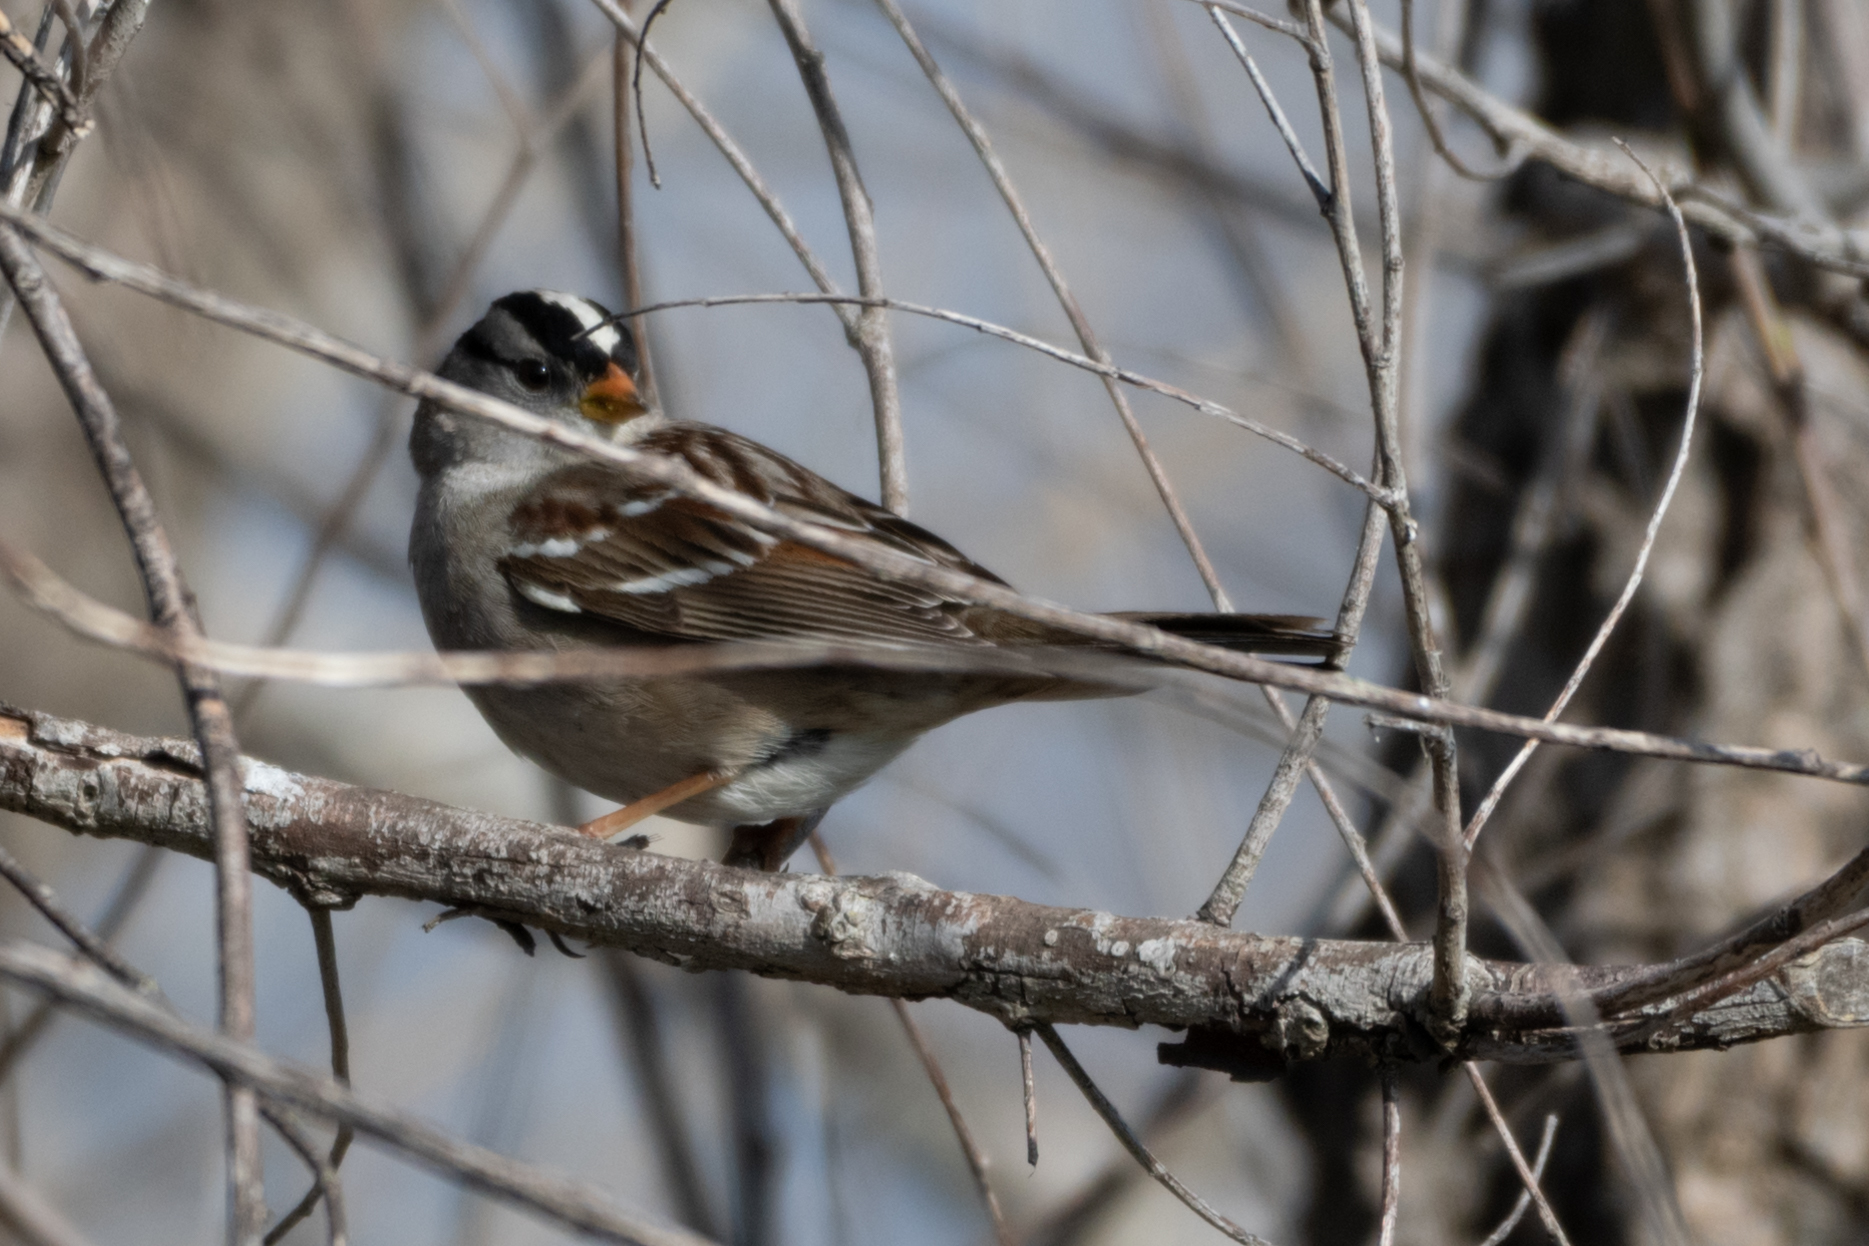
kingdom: Animalia
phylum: Chordata
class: Aves
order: Passeriformes
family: Passerellidae
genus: Zonotrichia
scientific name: Zonotrichia leucophrys
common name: White-crowned sparrow
